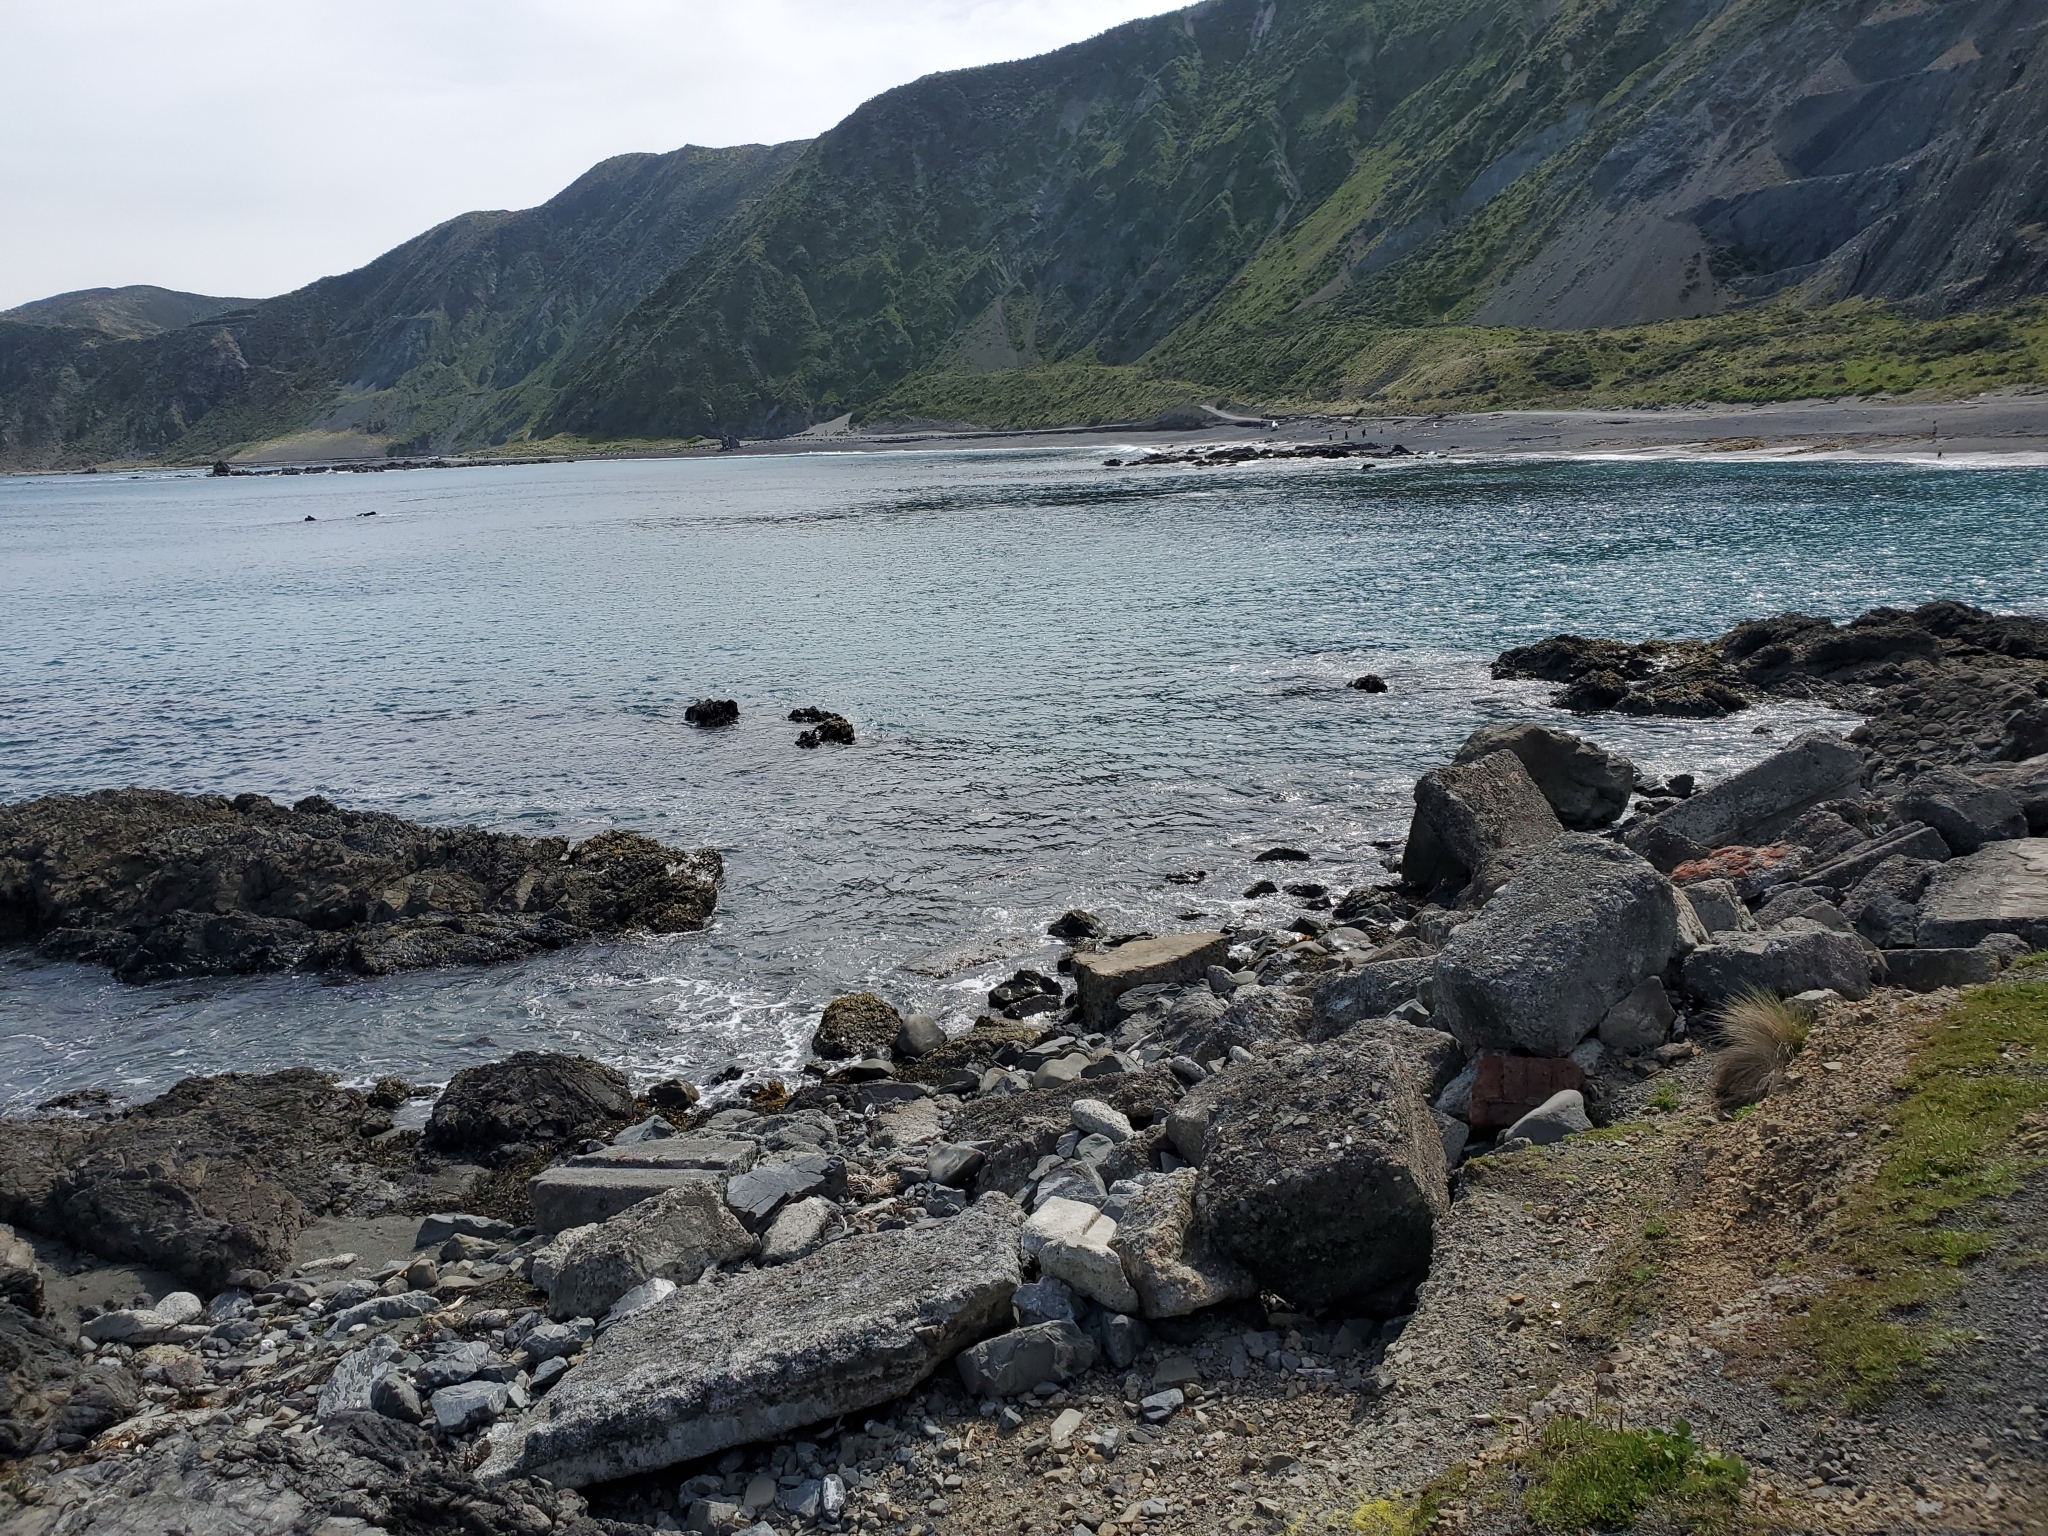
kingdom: Animalia
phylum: Chordata
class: Mammalia
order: Cetacea
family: Delphinidae
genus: Orcinus
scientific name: Orcinus orca
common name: Killer whale
